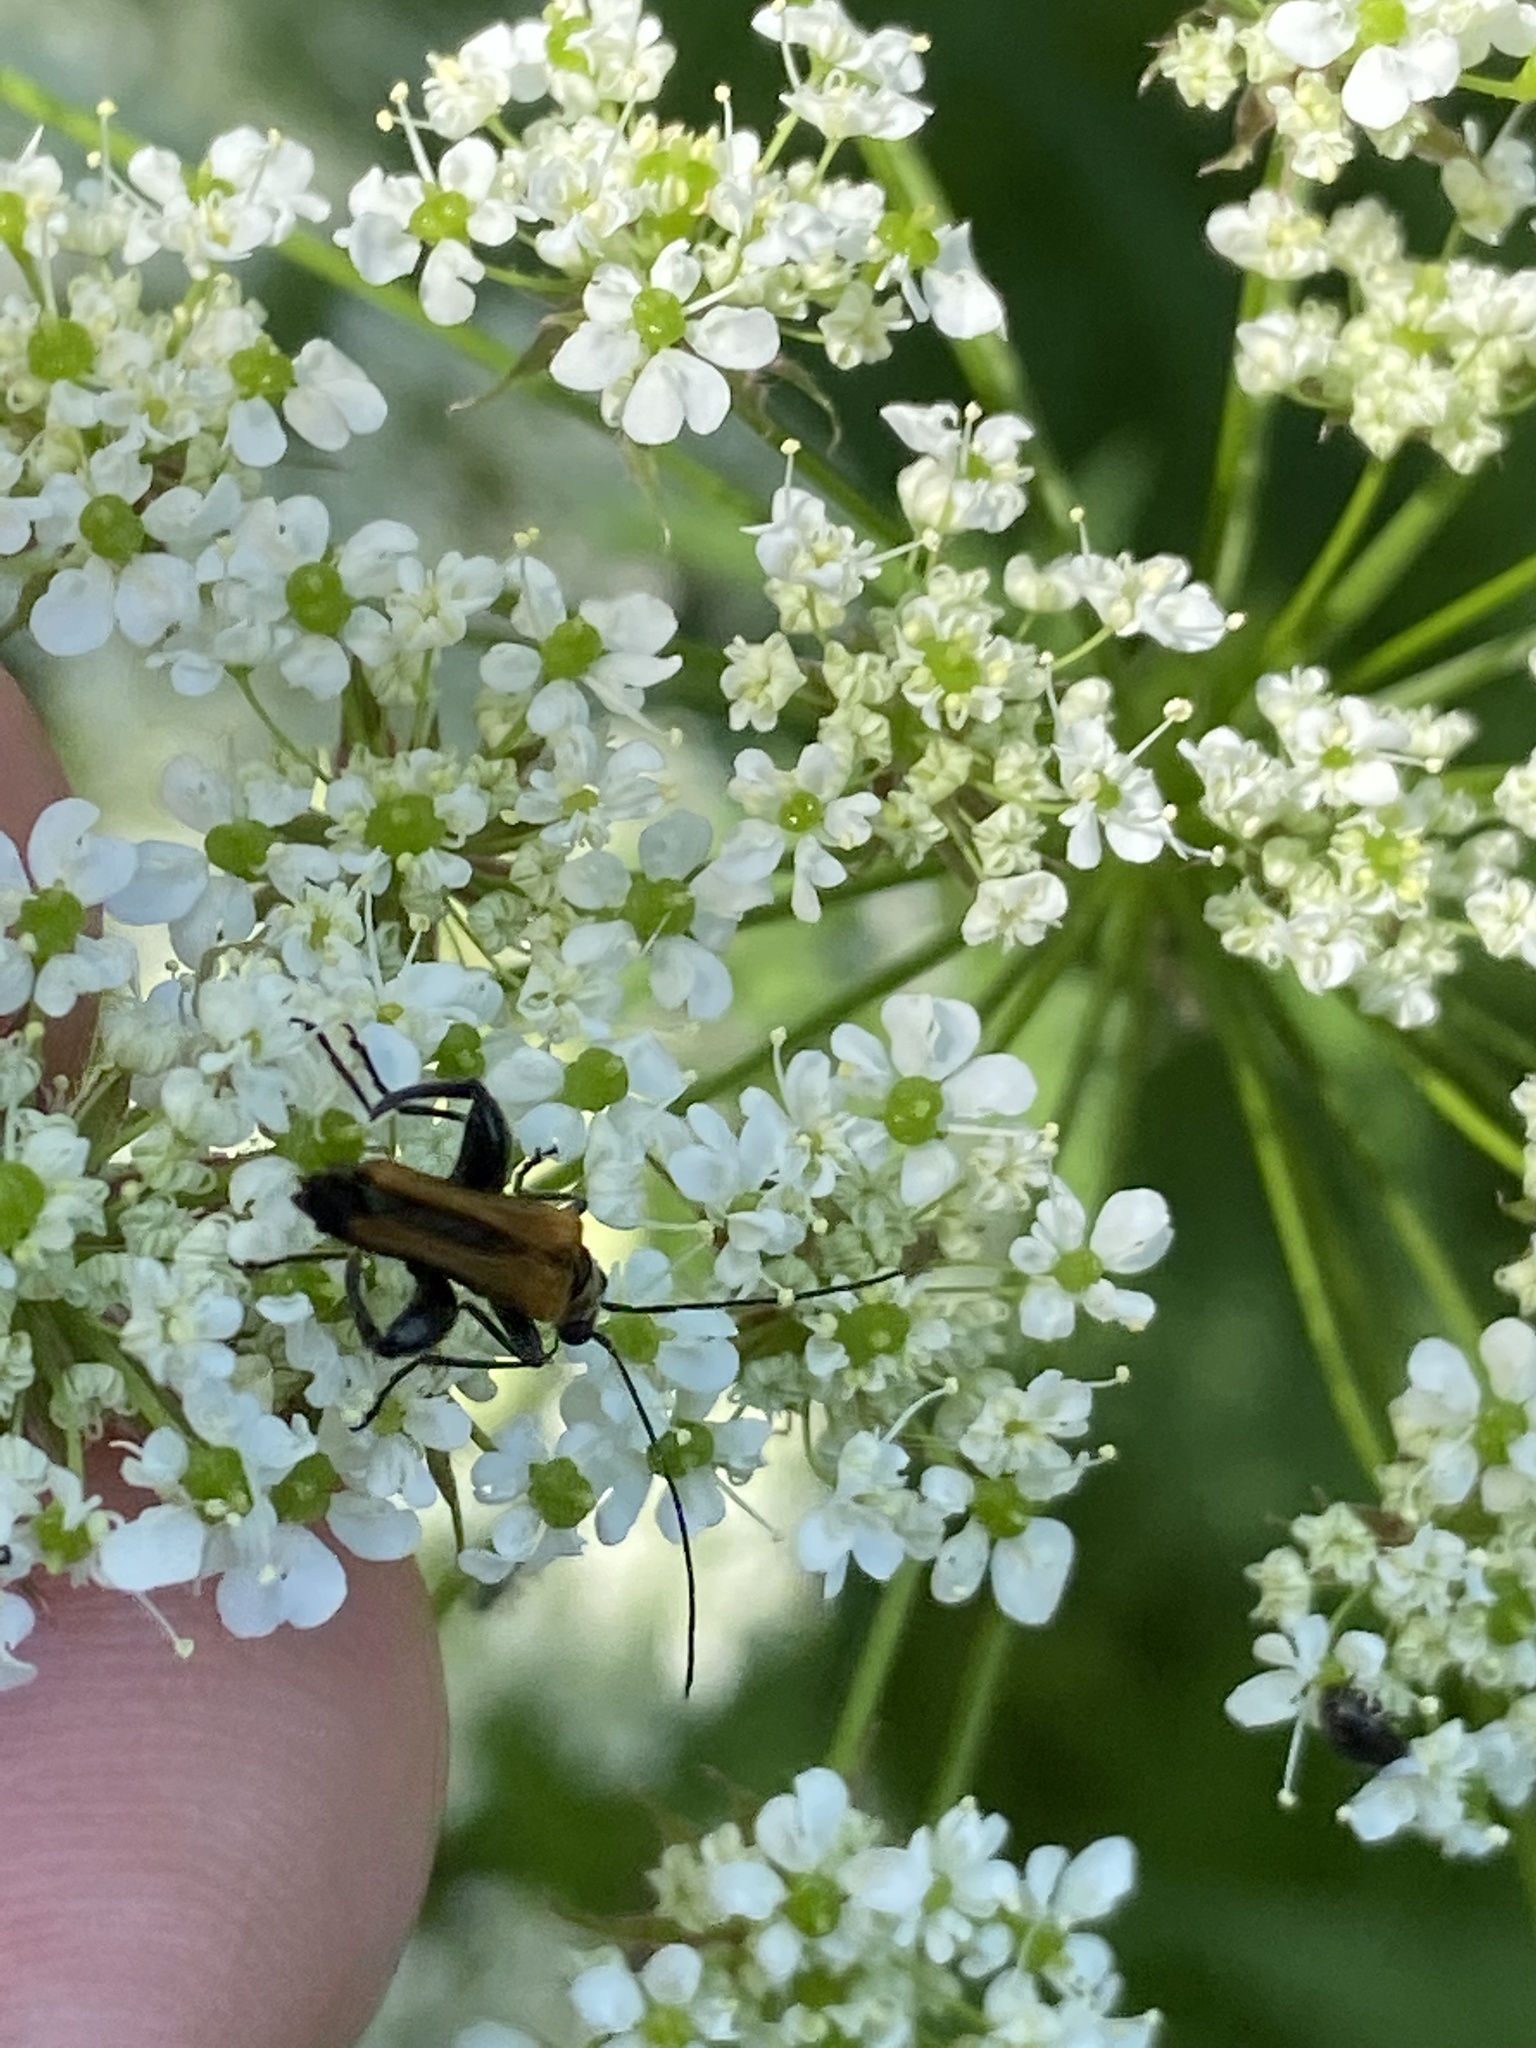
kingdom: Animalia
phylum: Arthropoda
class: Insecta
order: Coleoptera
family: Oedemeridae
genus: Oedemera
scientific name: Oedemera femorata
